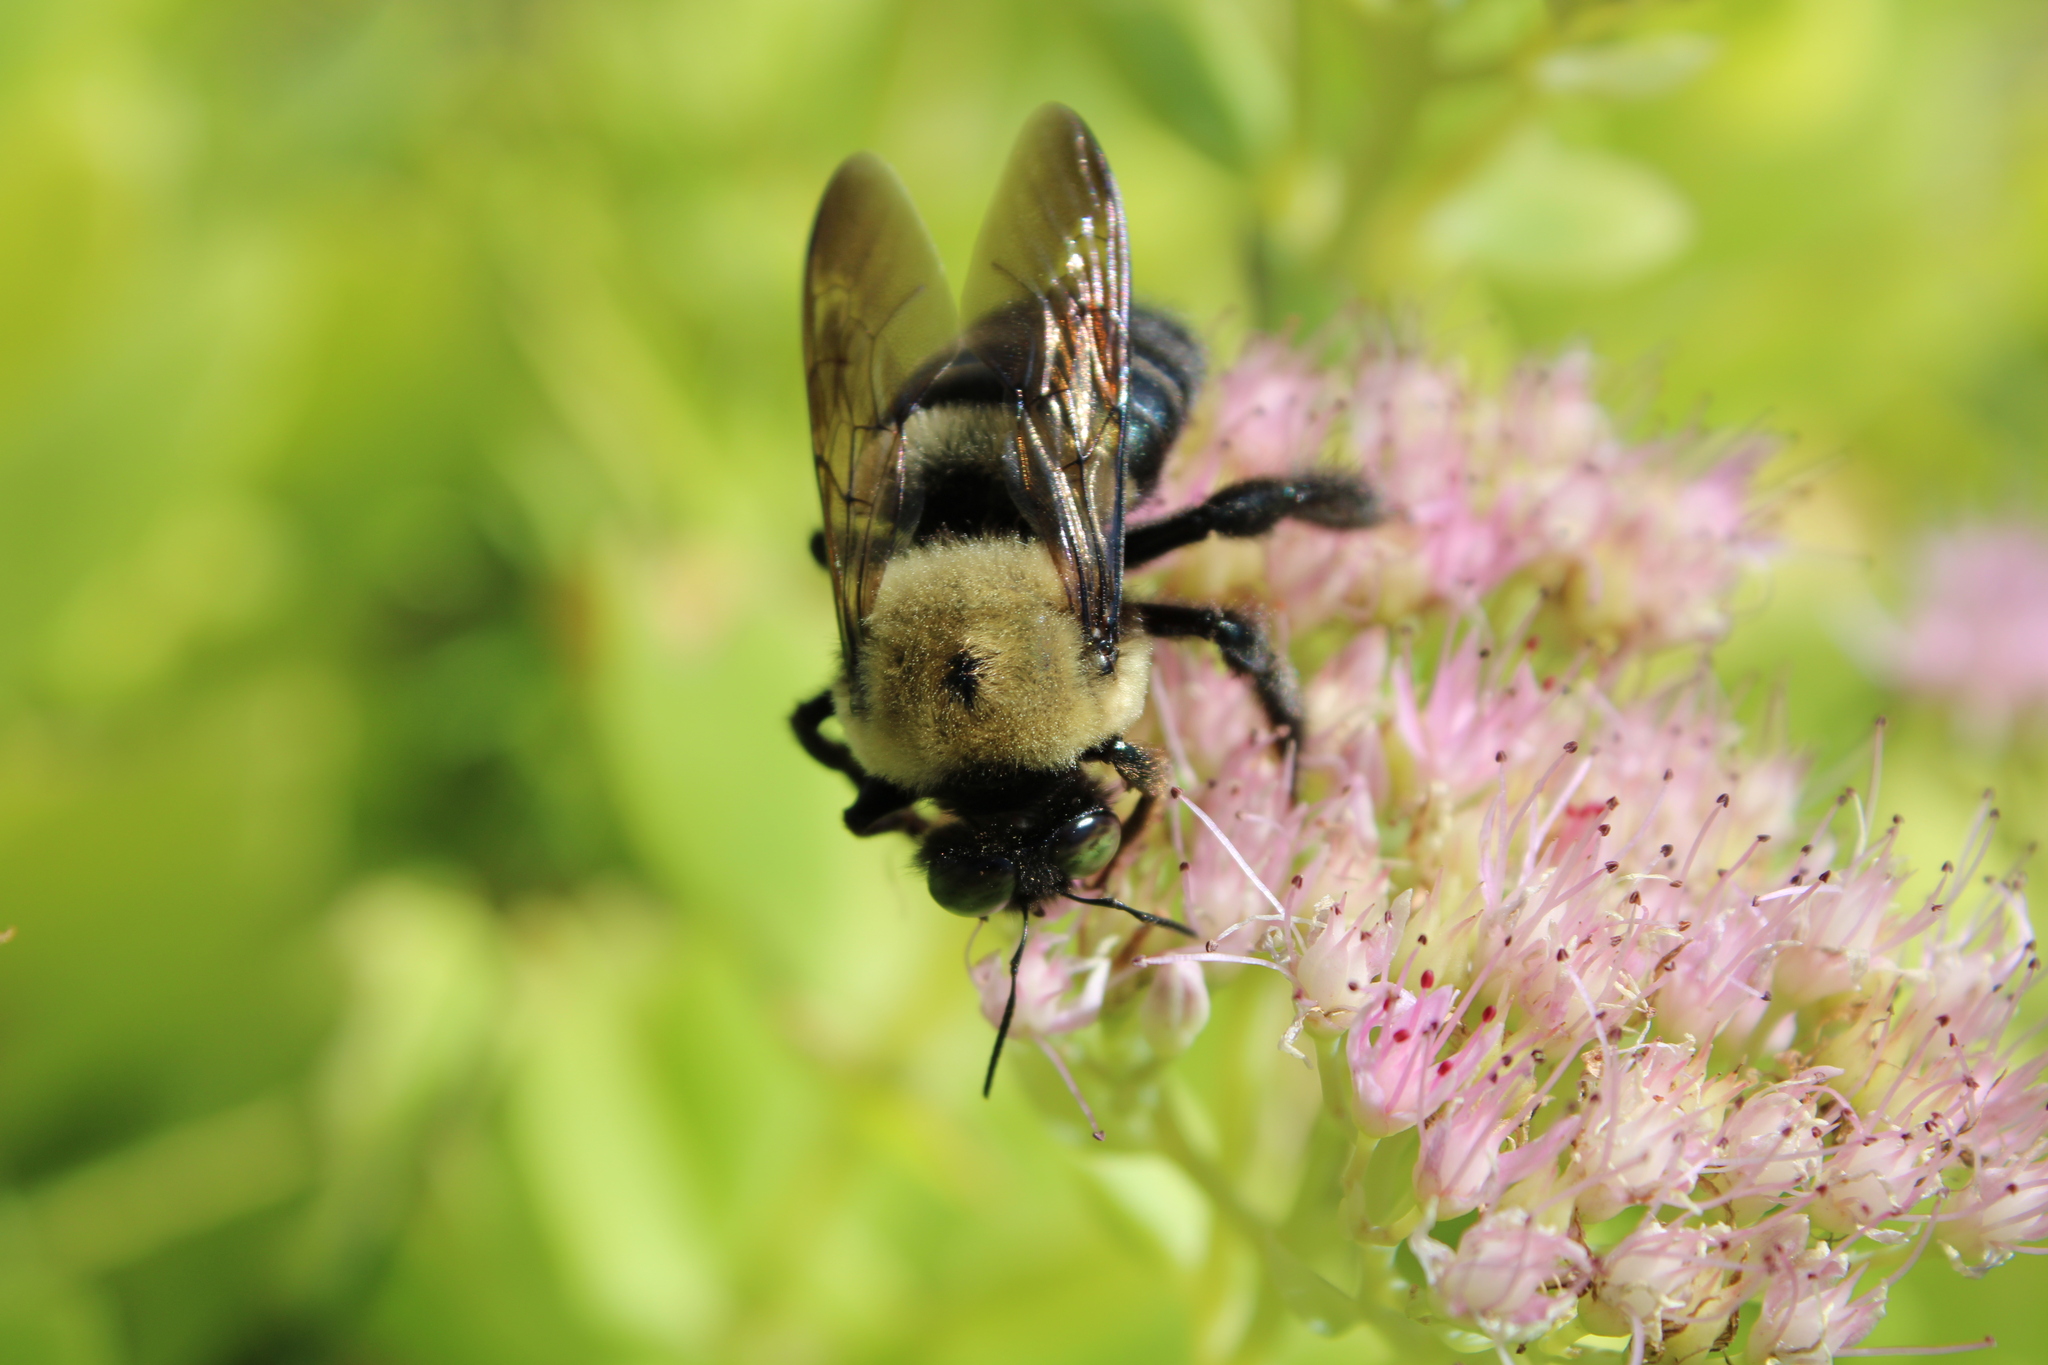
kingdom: Animalia
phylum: Arthropoda
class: Insecta
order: Hymenoptera
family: Apidae
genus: Xylocopa
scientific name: Xylocopa virginica
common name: Carpenter bee
